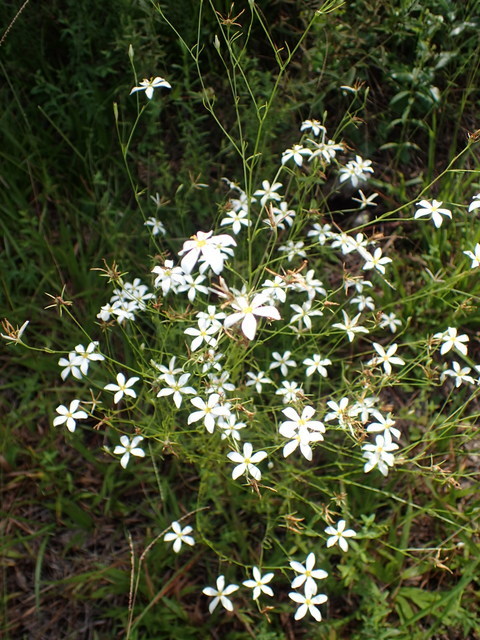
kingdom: Plantae
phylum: Tracheophyta
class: Magnoliopsida
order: Gentianales
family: Gentianaceae
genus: Sabatia
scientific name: Sabatia brevifolia
